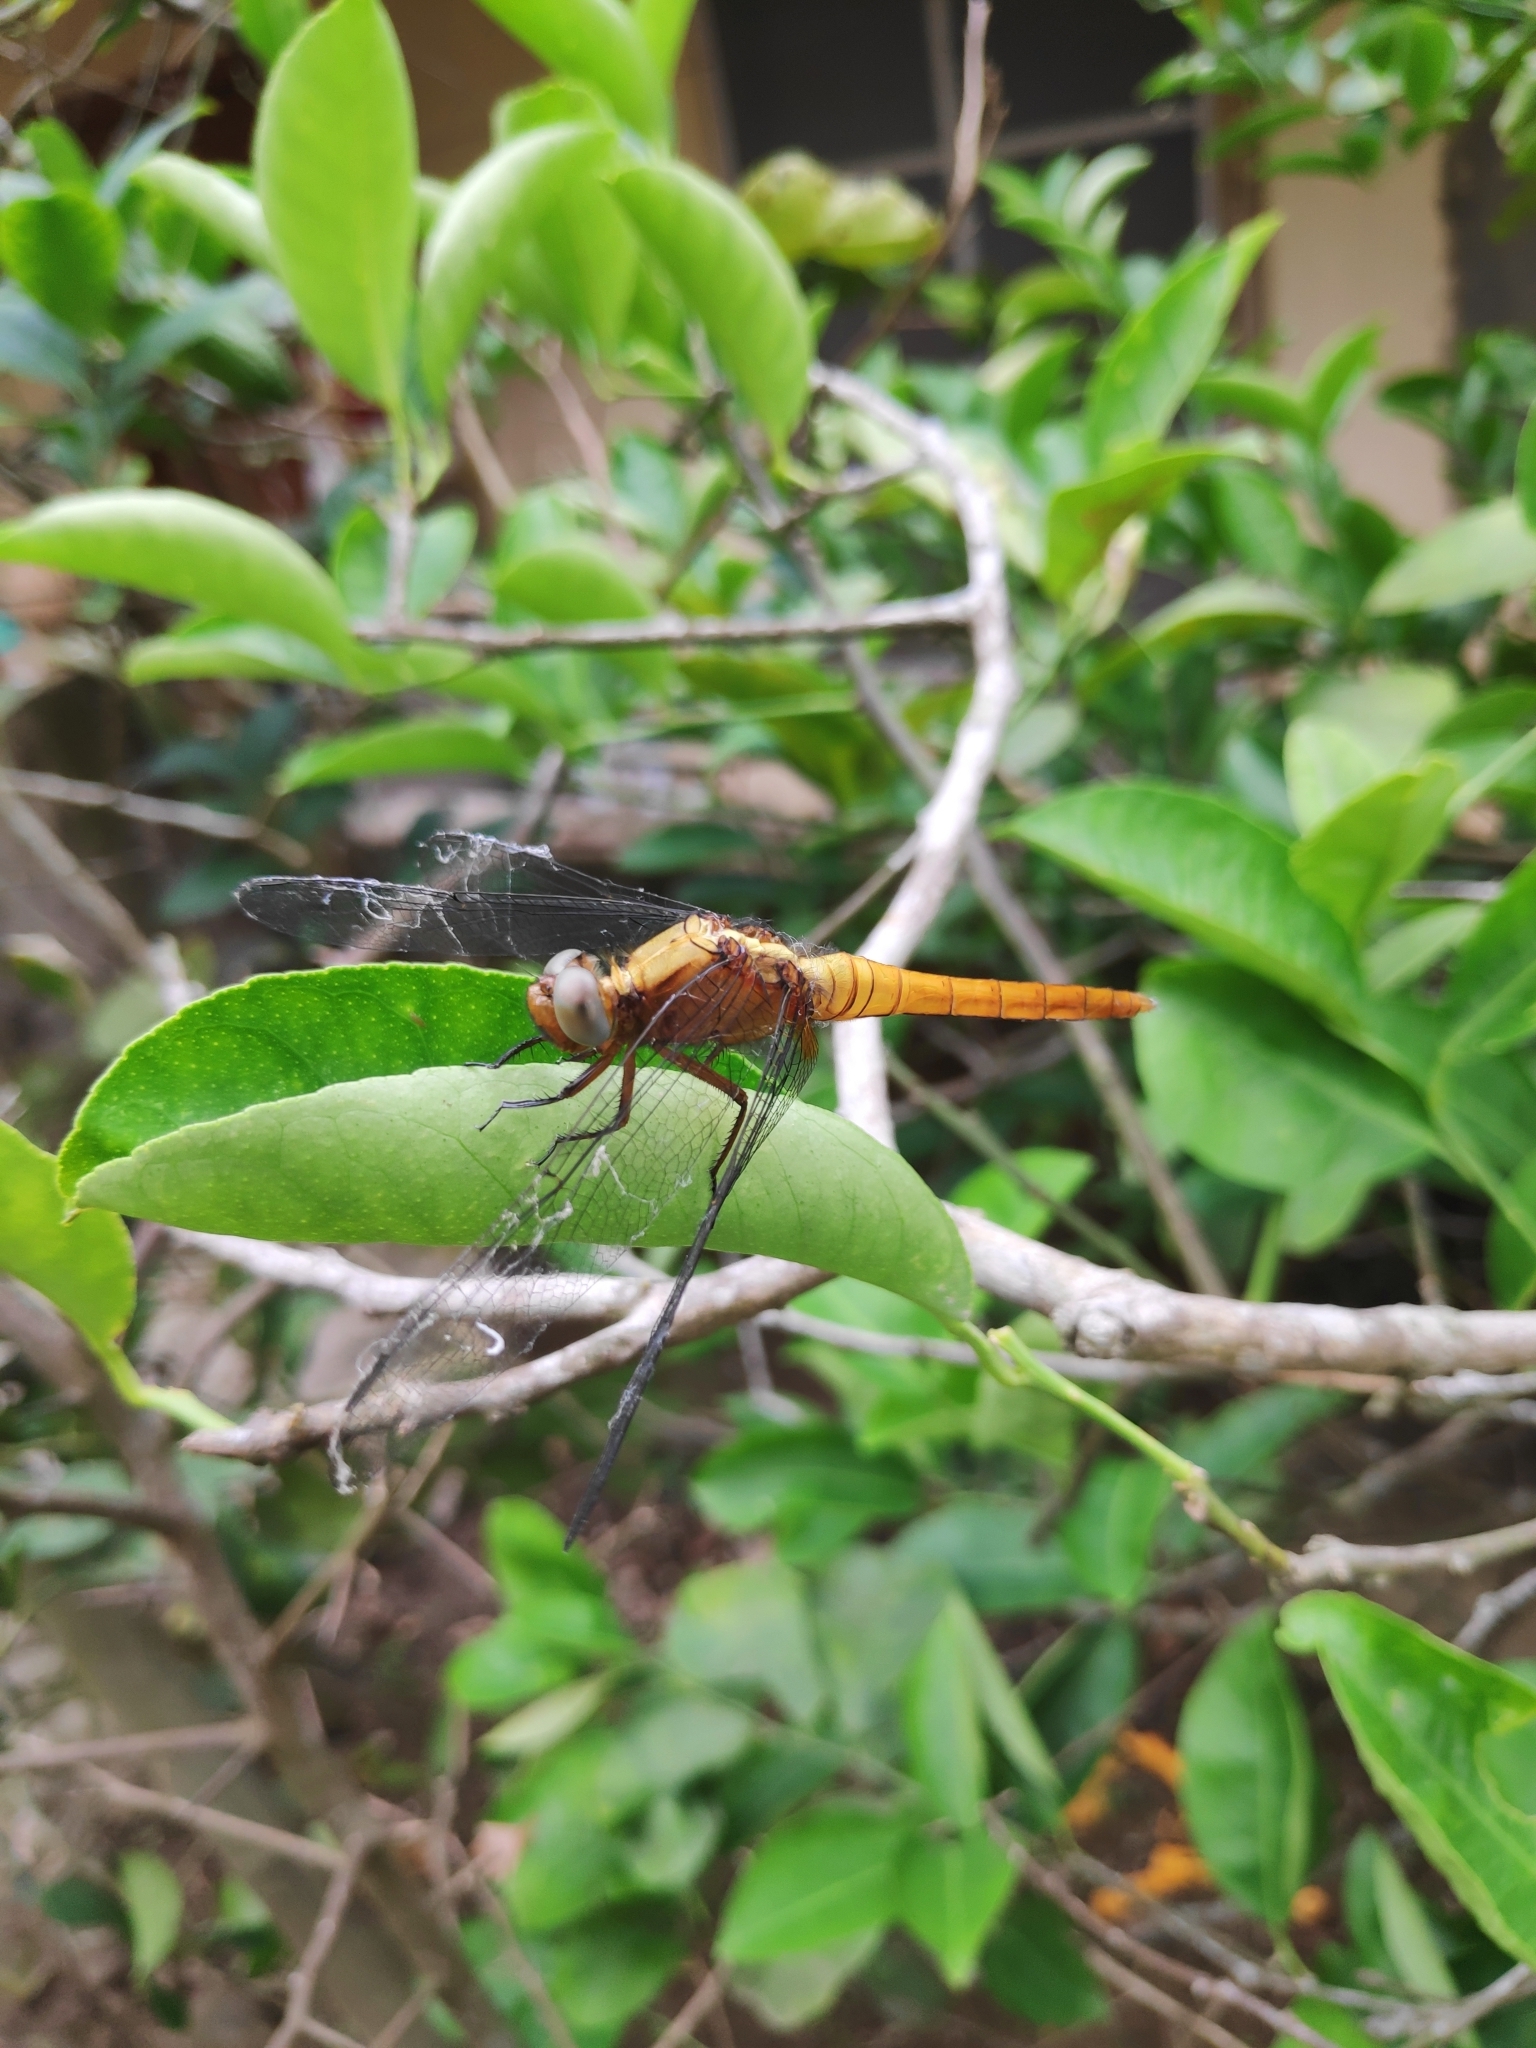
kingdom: Animalia
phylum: Arthropoda
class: Insecta
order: Odonata
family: Libellulidae
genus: Orthetrum
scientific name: Orthetrum chrysis
